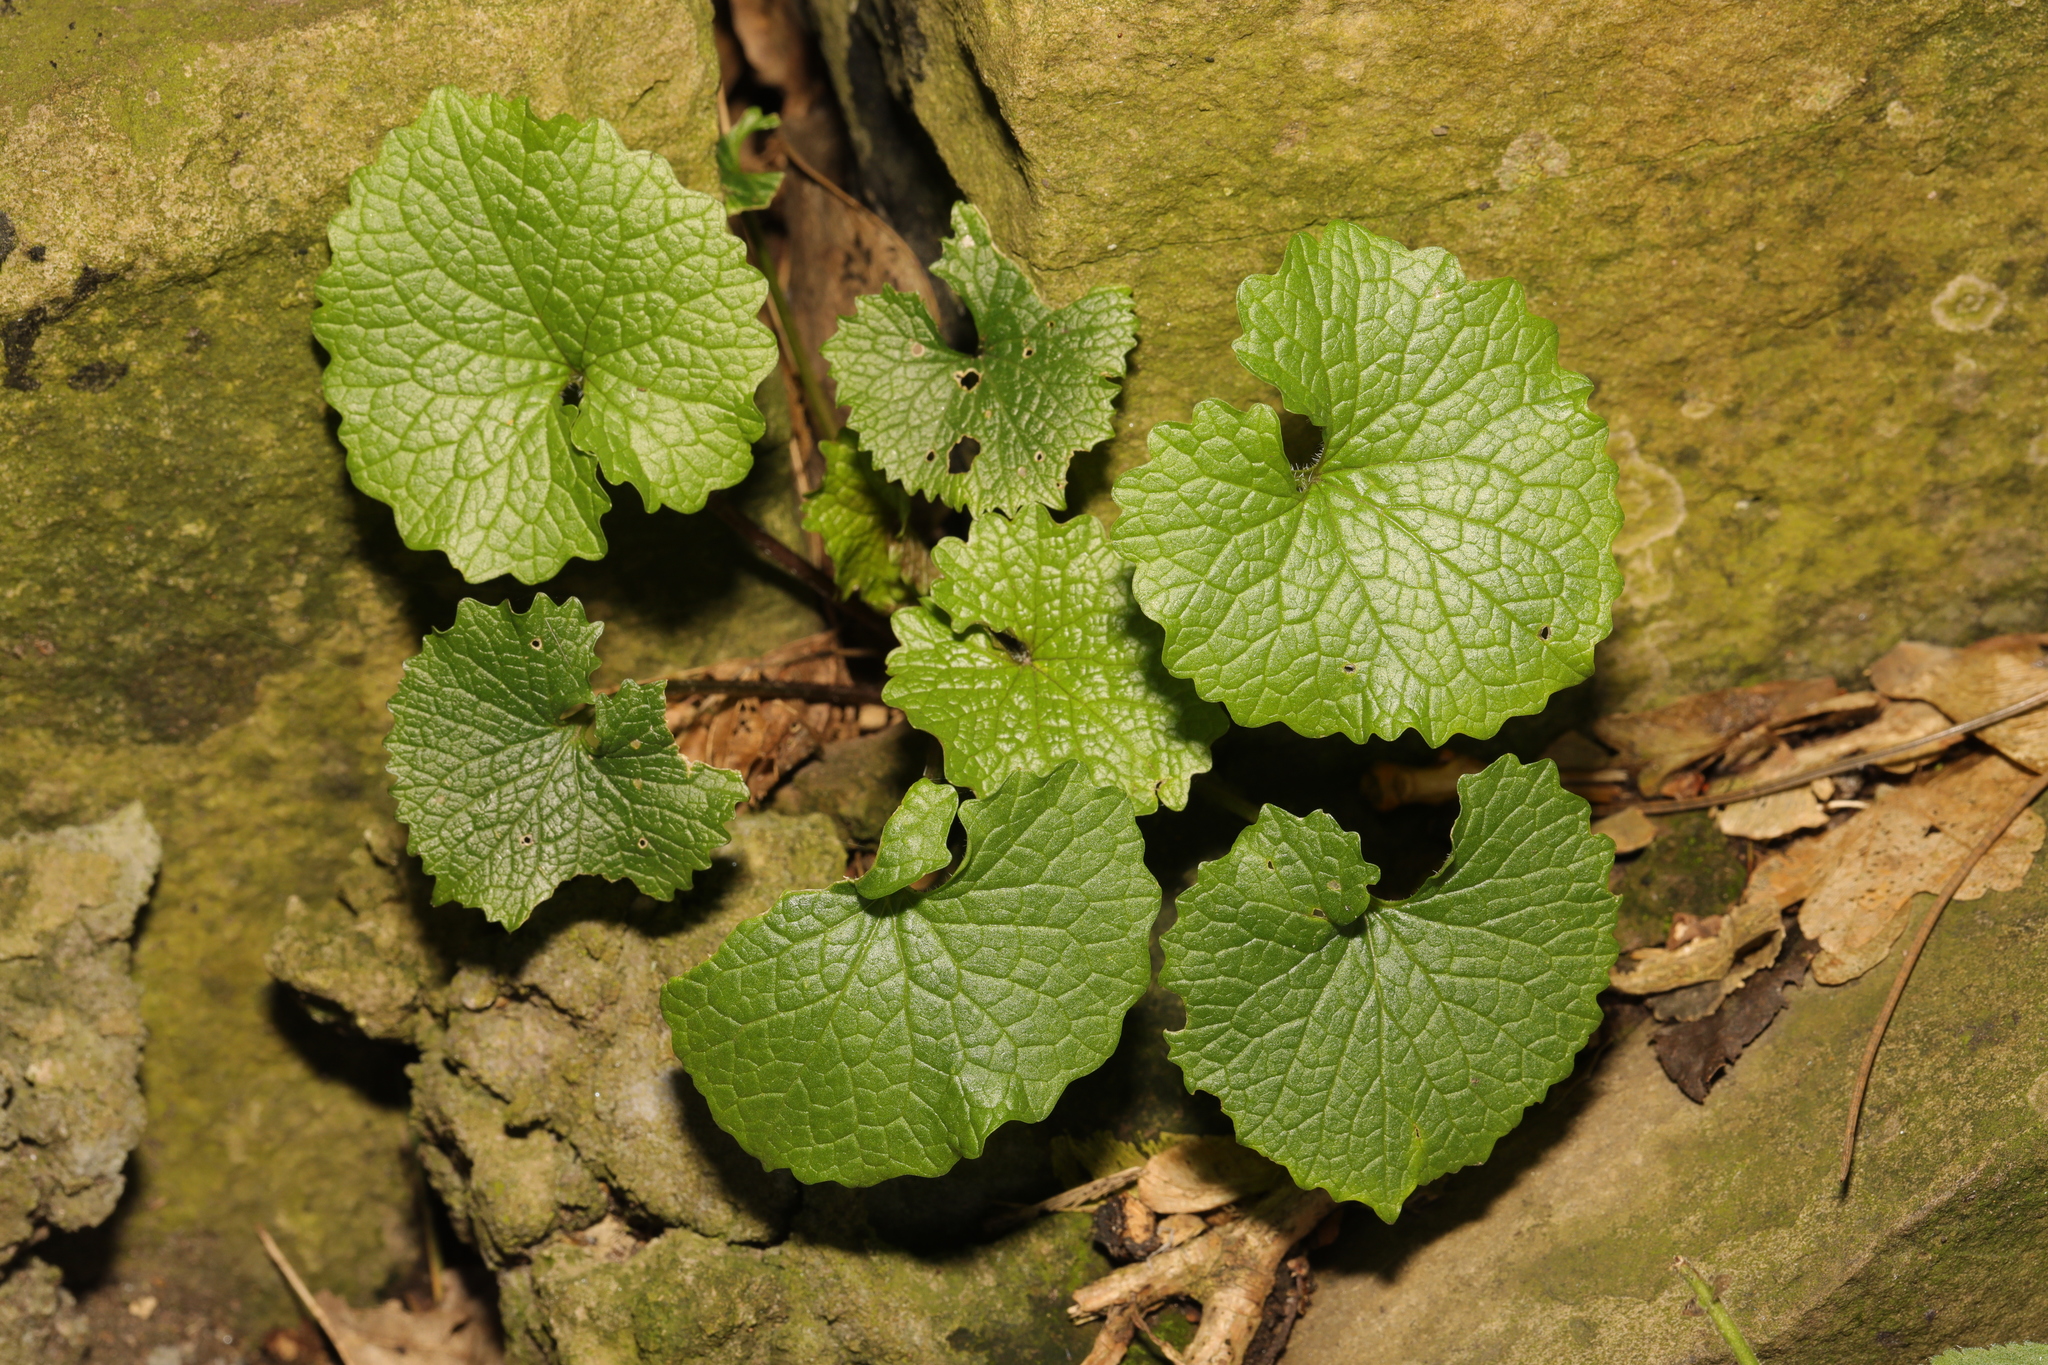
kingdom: Plantae
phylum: Tracheophyta
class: Magnoliopsida
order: Brassicales
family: Brassicaceae
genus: Alliaria
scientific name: Alliaria petiolata
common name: Garlic mustard
